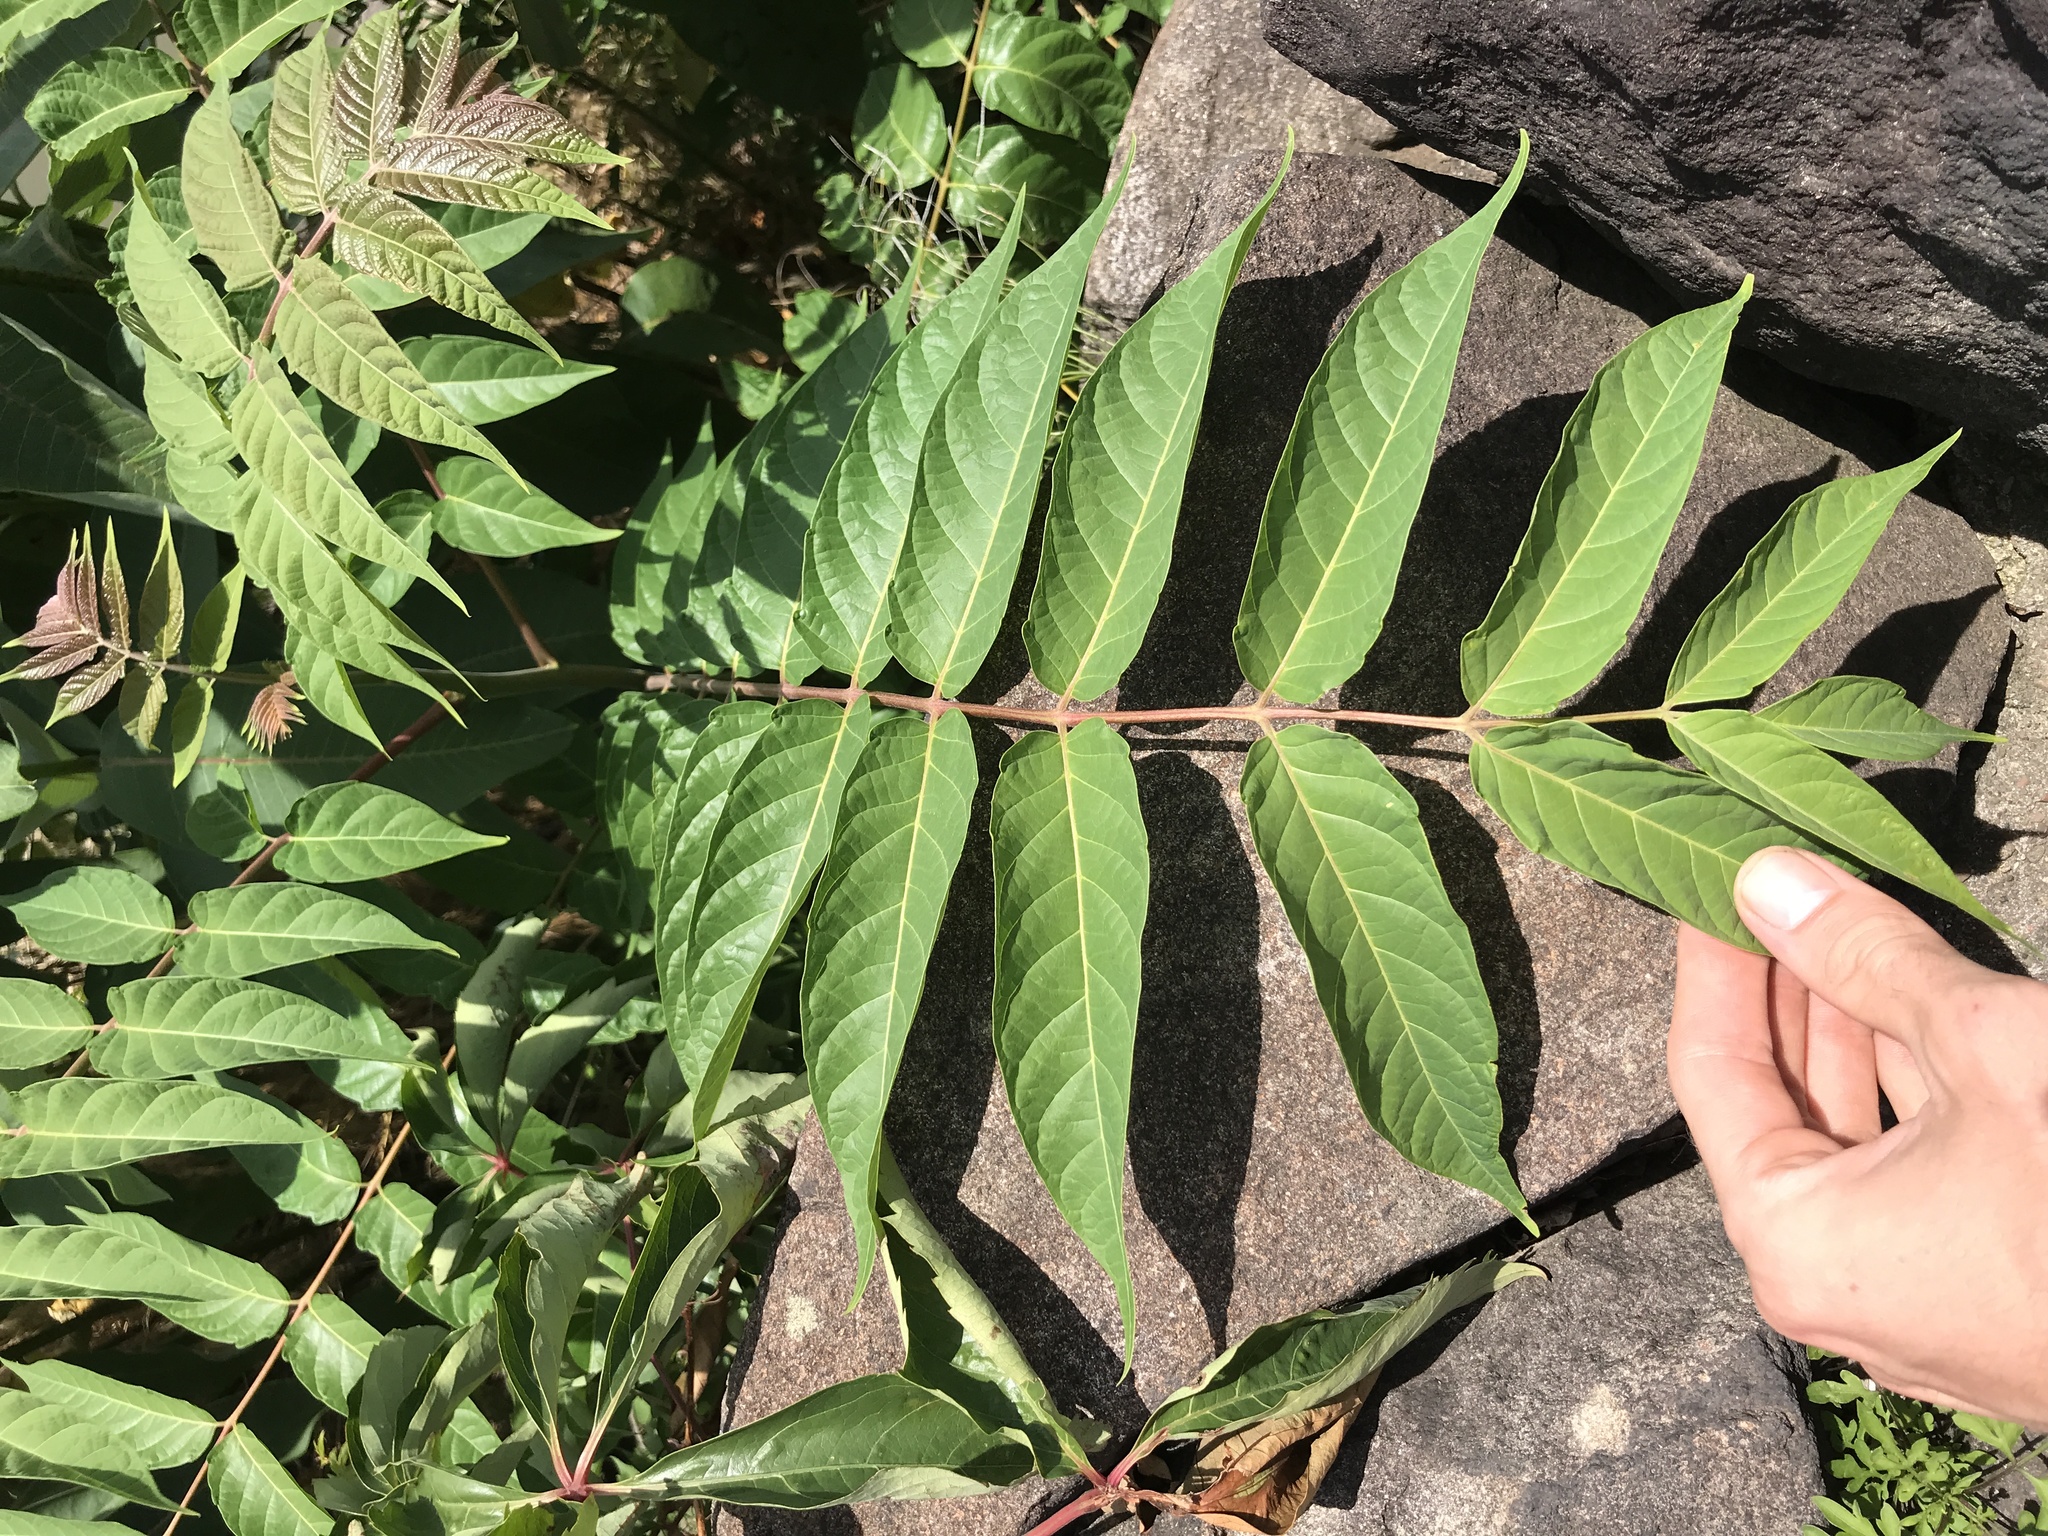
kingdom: Plantae
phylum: Tracheophyta
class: Magnoliopsida
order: Sapindales
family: Simaroubaceae
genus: Ailanthus
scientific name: Ailanthus altissima
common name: Tree-of-heaven
